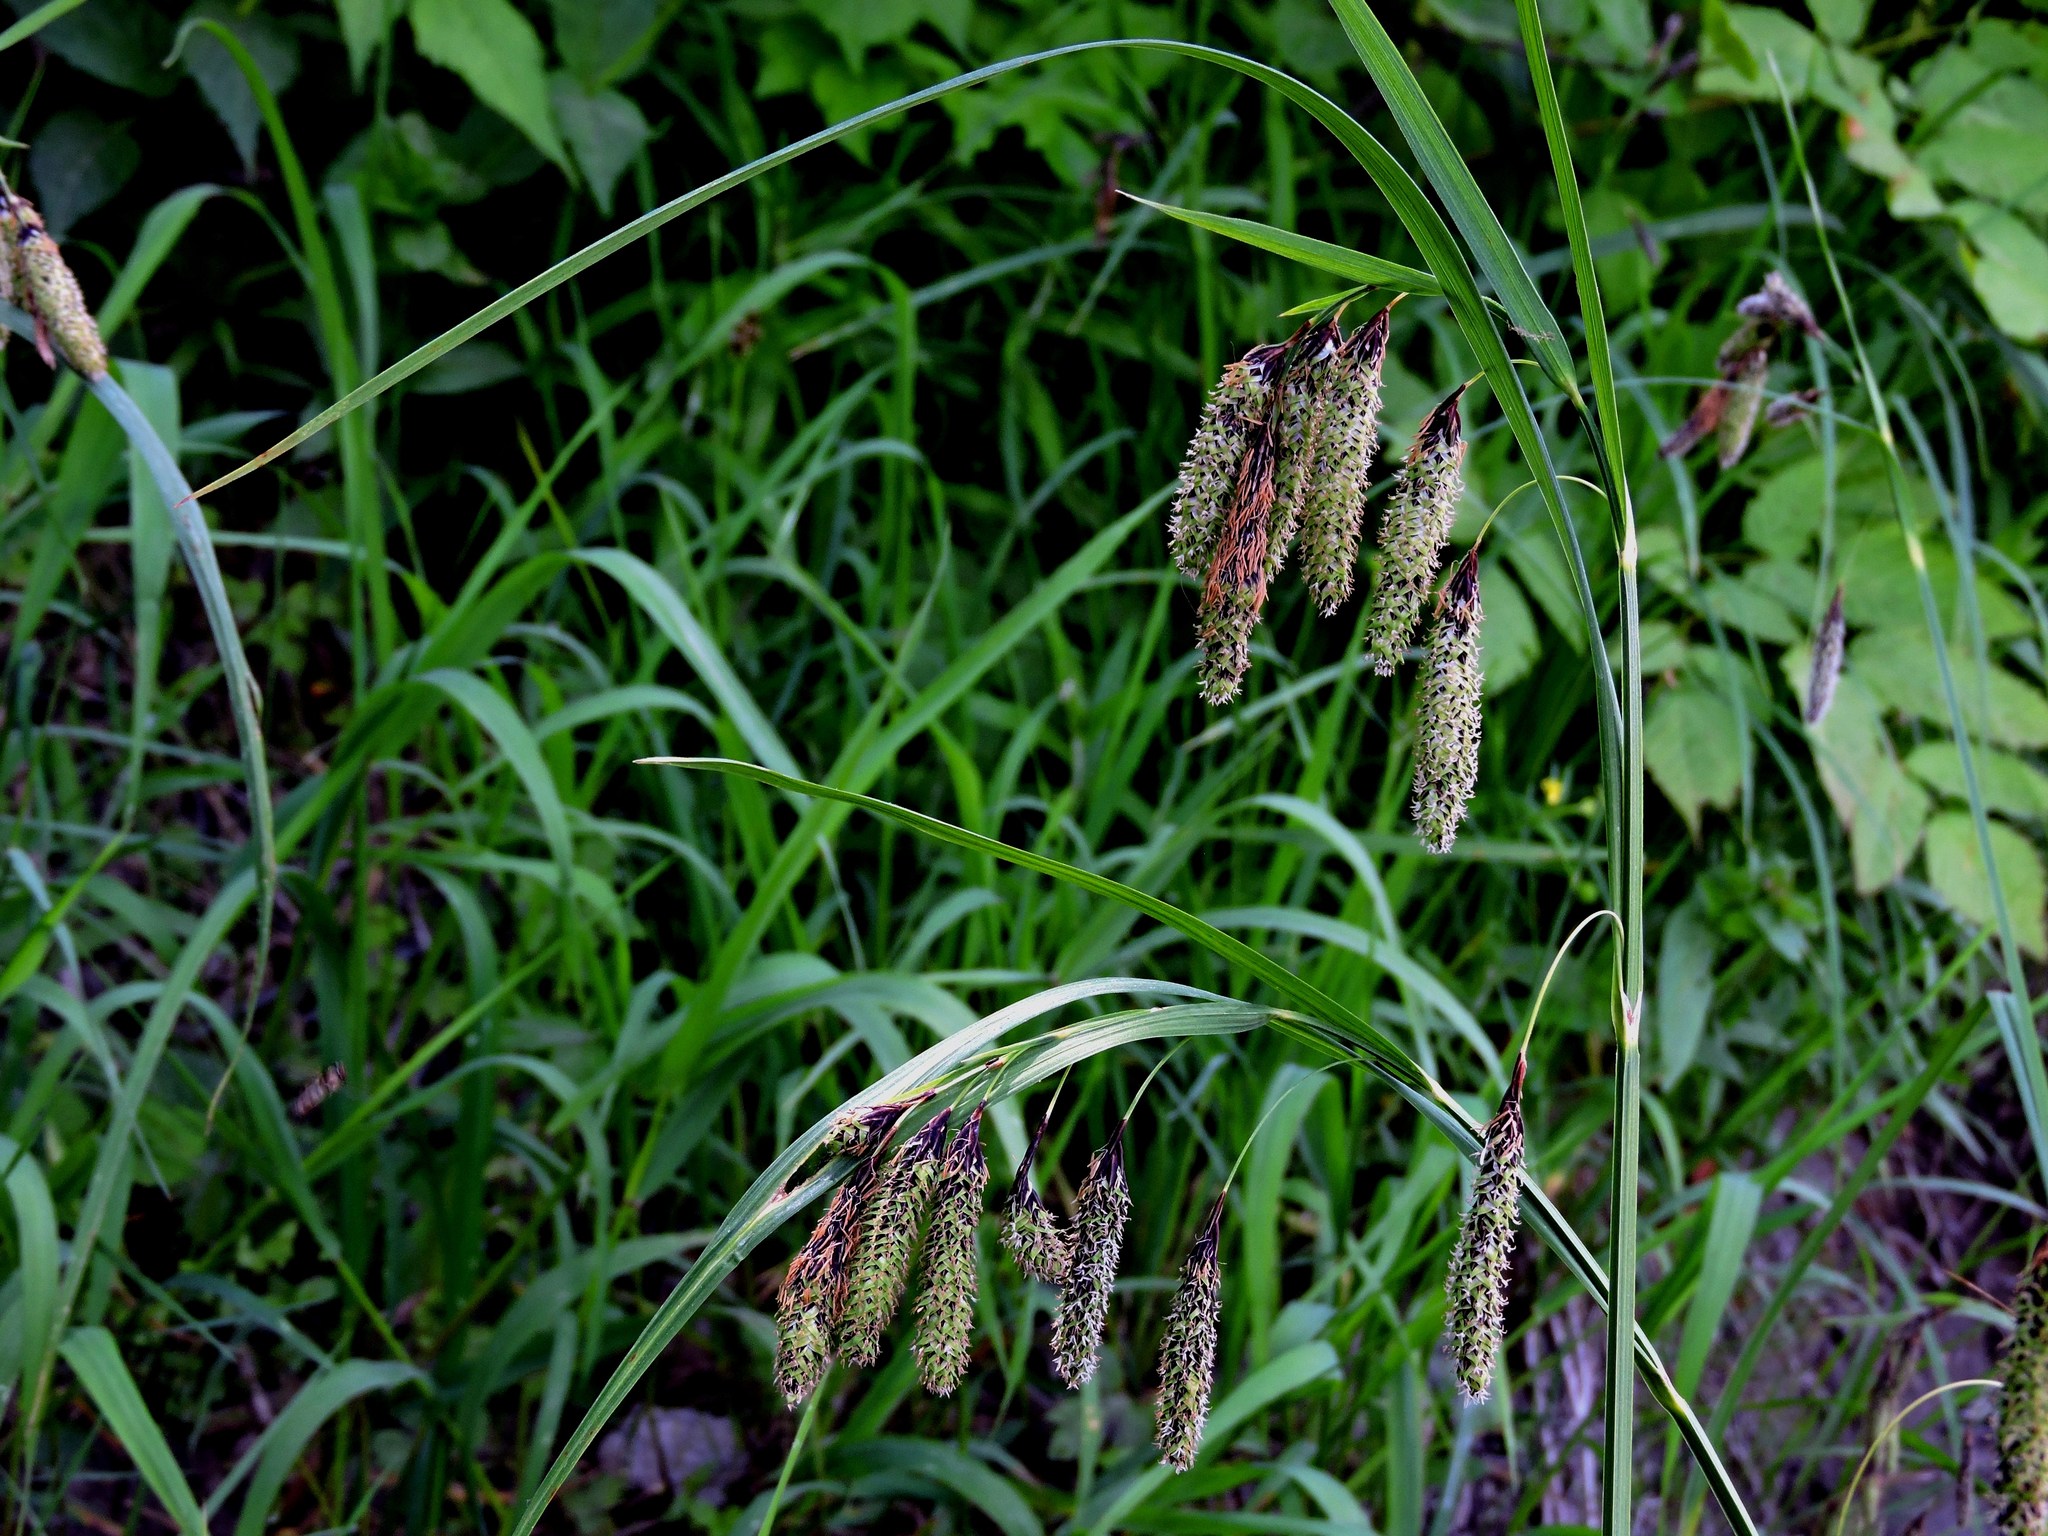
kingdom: Plantae
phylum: Tracheophyta
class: Liliopsida
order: Poales
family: Cyperaceae
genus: Carex
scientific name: Carex mertensii
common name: Mertens' sedge
